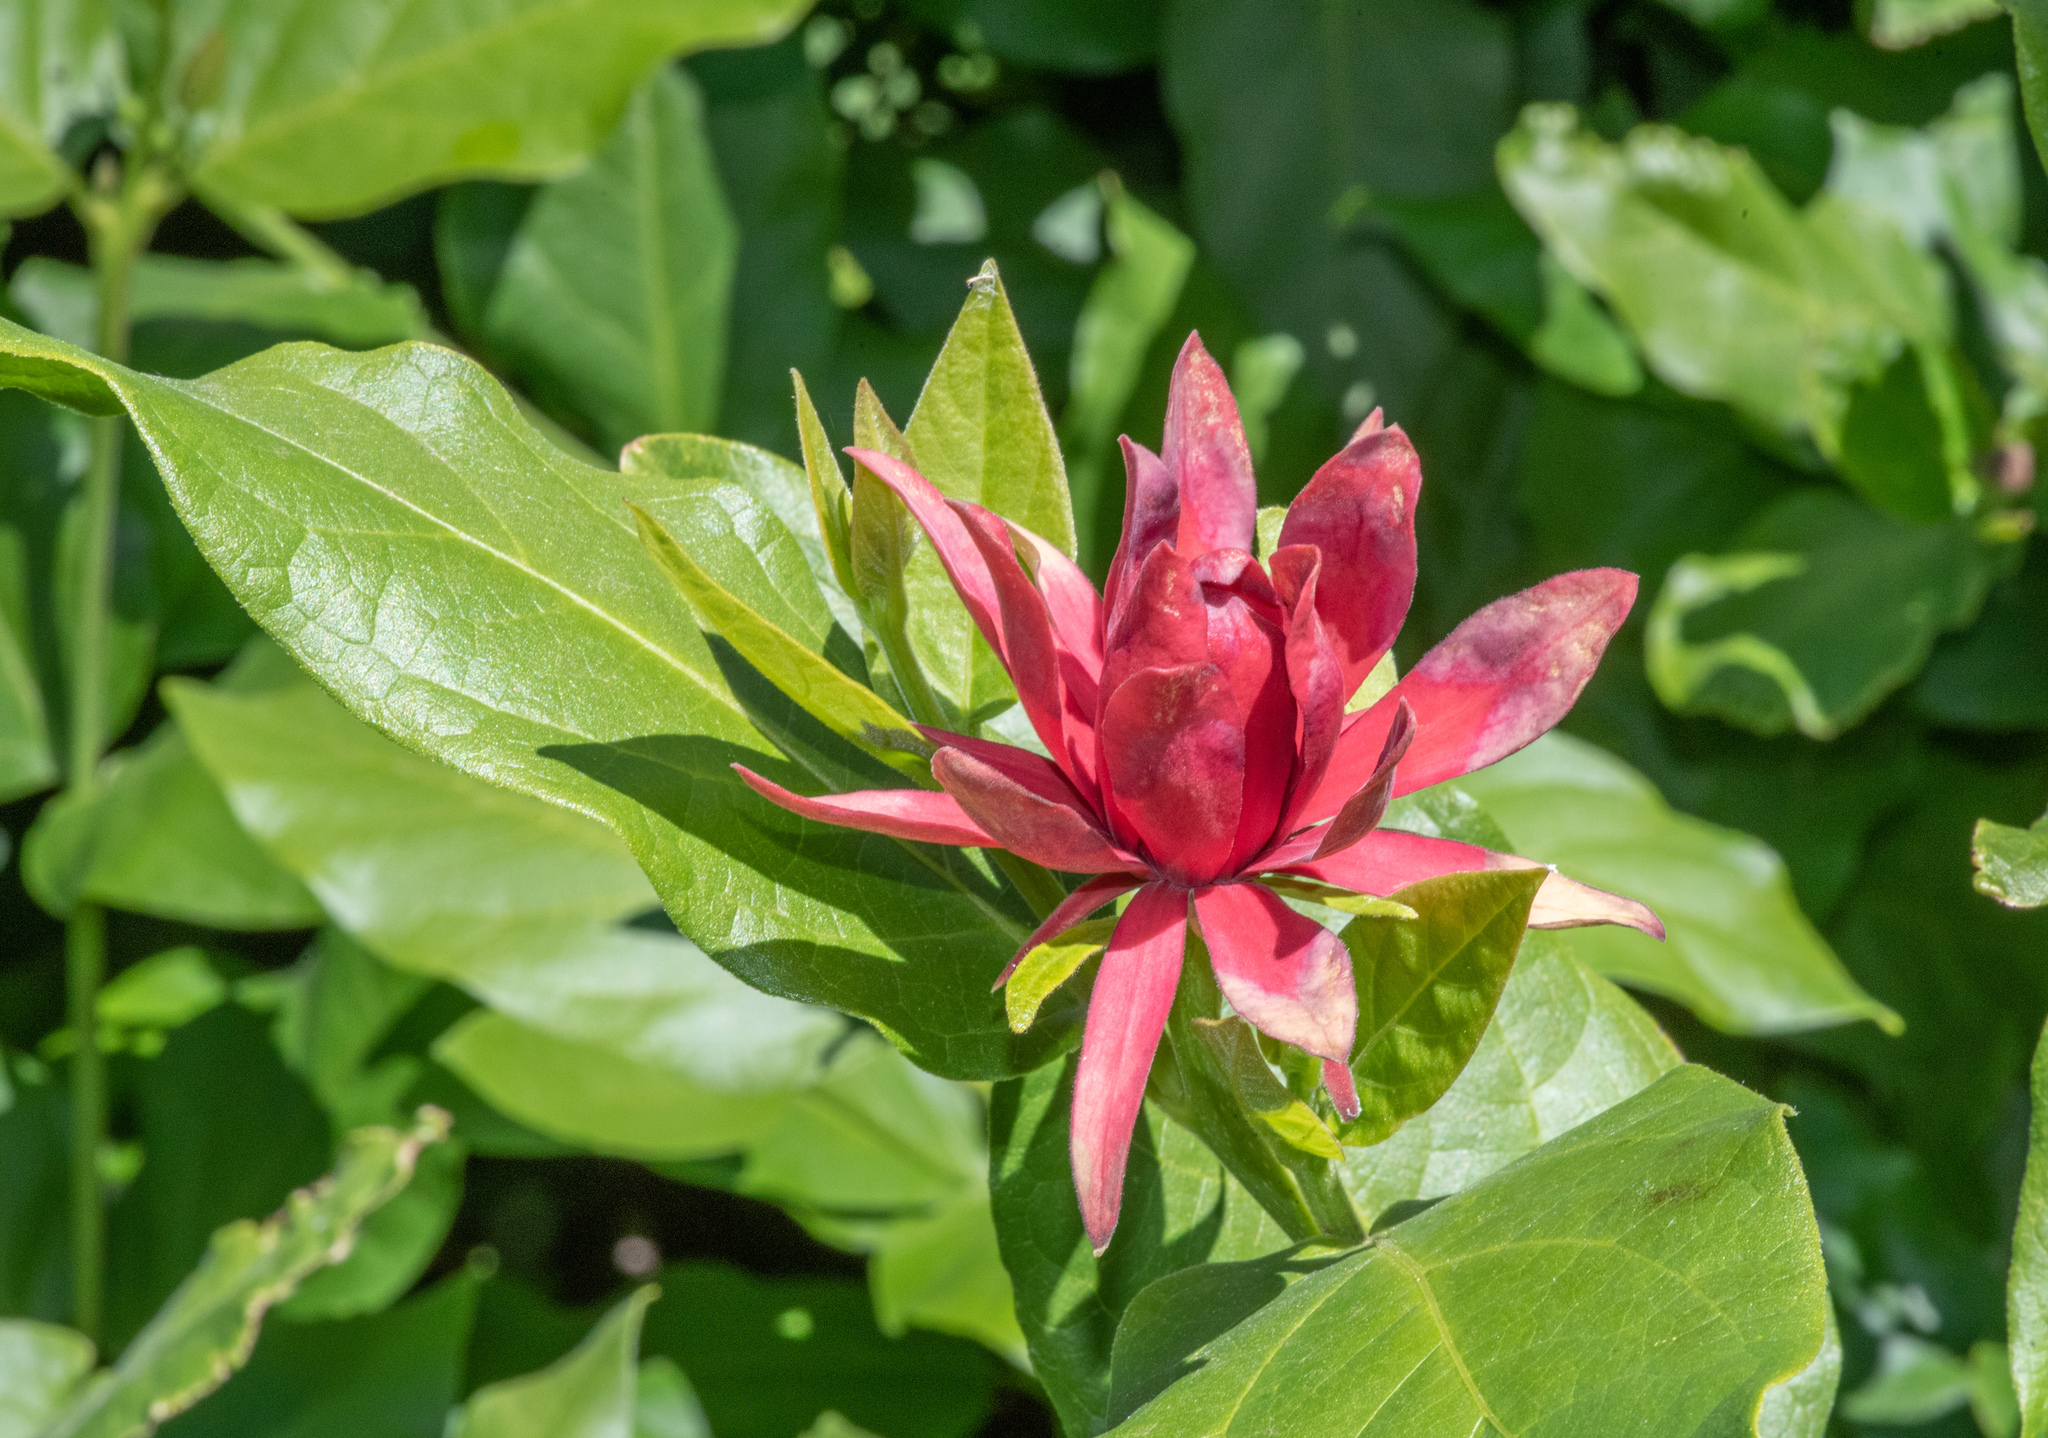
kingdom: Plantae
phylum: Tracheophyta
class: Magnoliopsida
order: Laurales
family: Calycanthaceae
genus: Calycanthus
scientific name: Calycanthus occidentalis
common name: California spicebush
